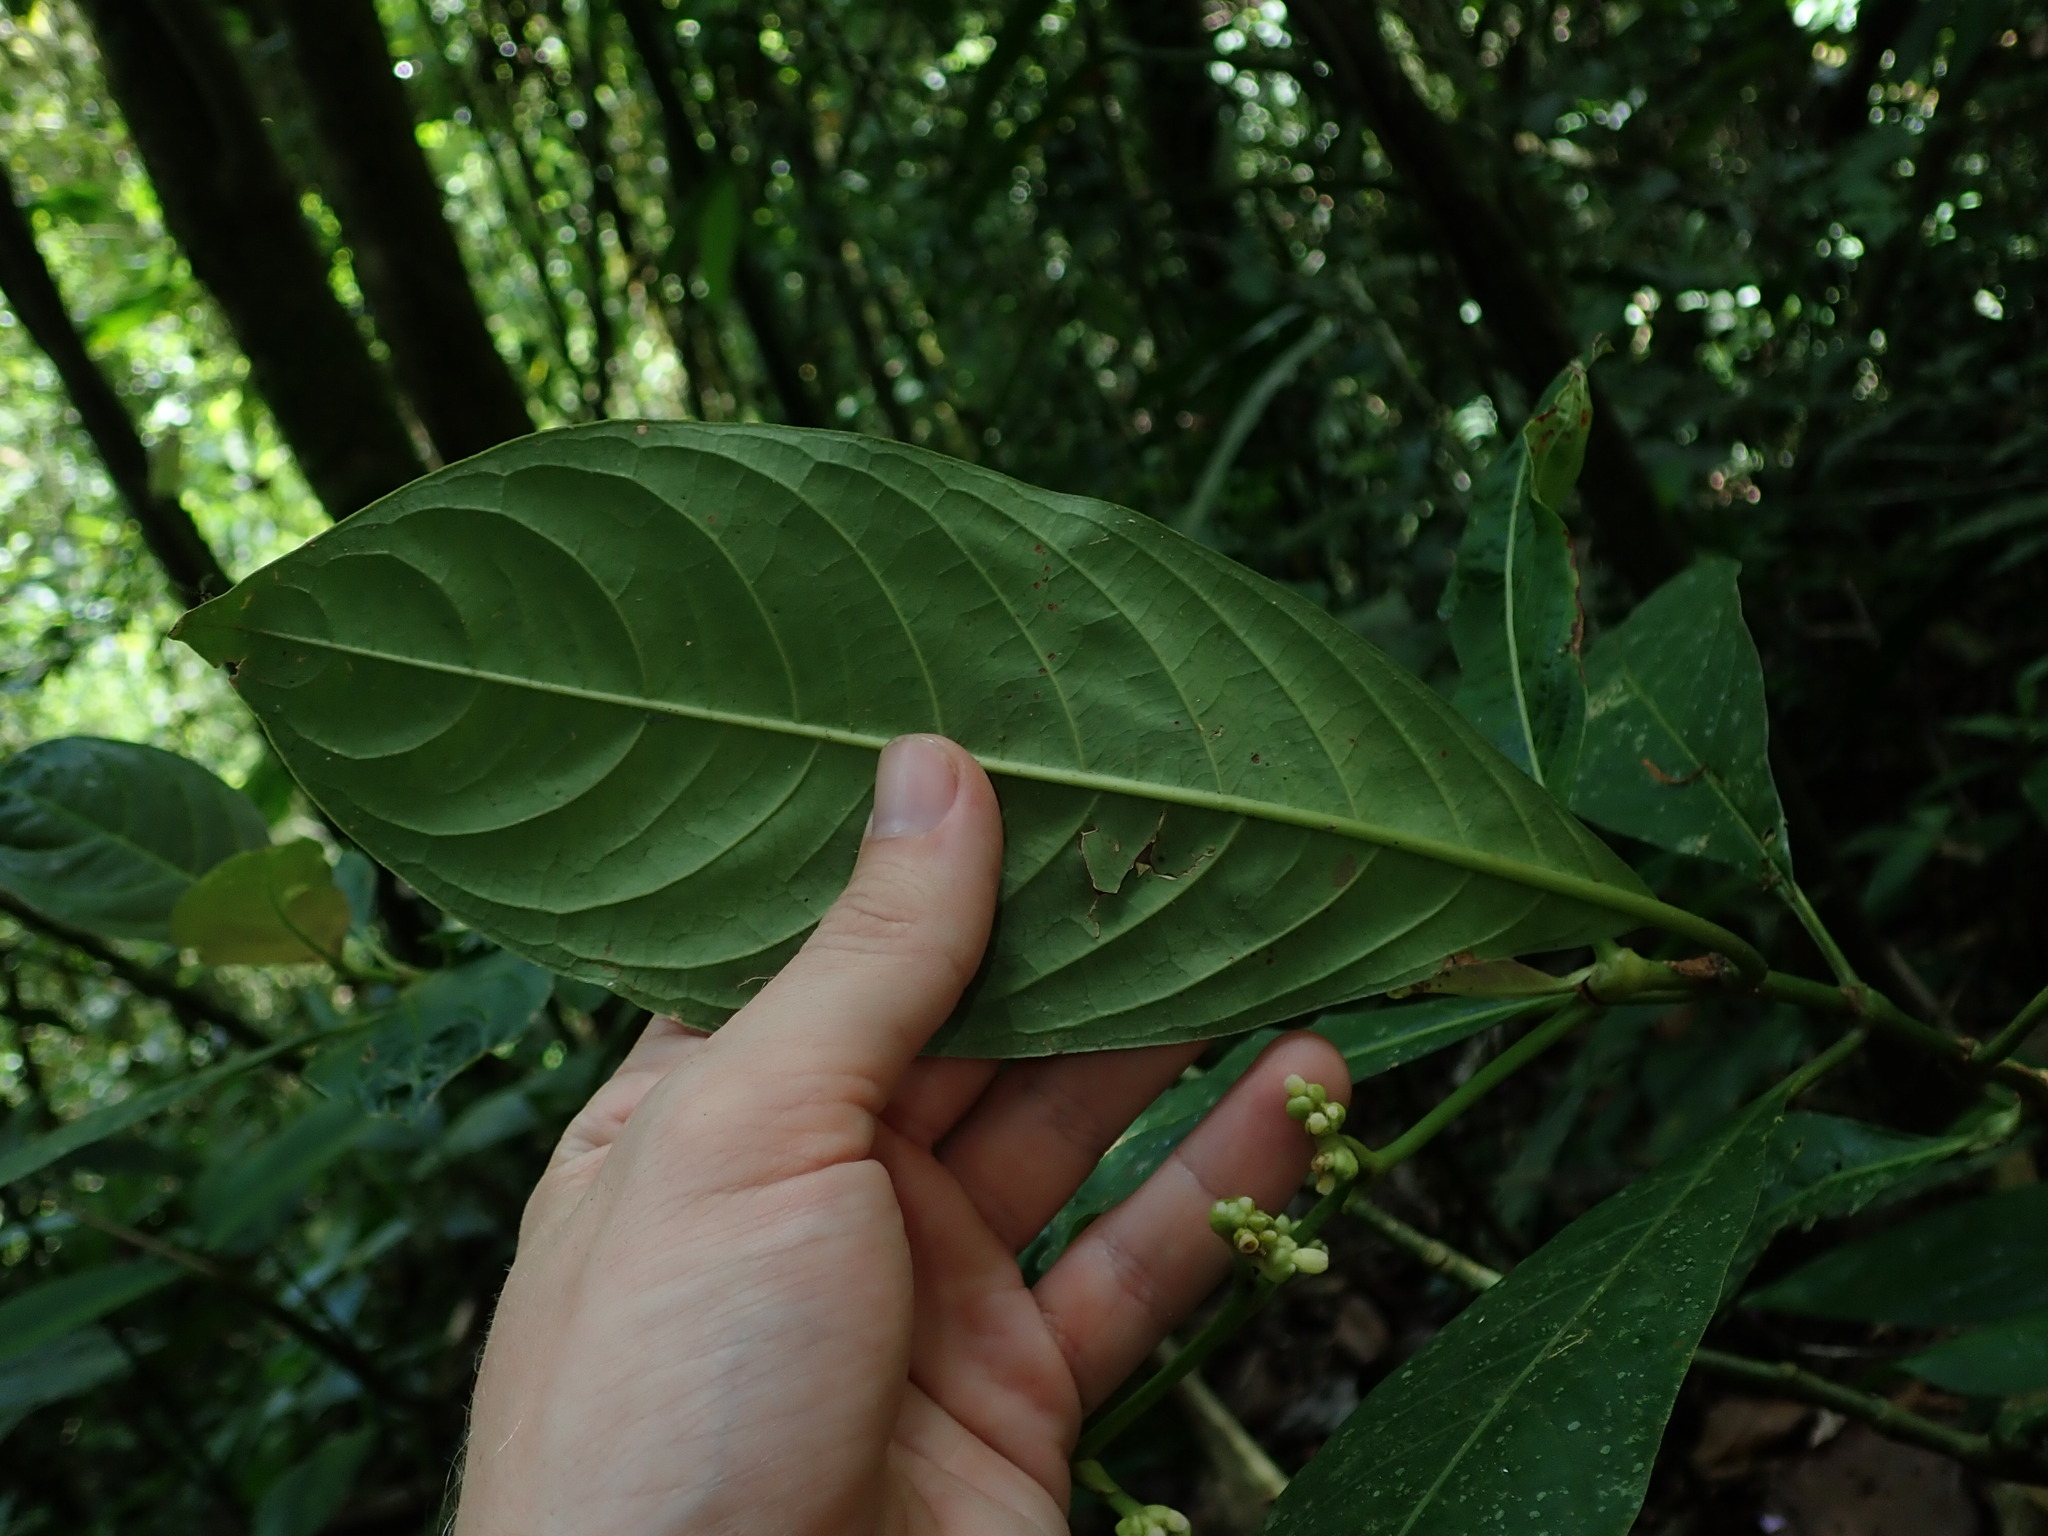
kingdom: Plantae
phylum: Tracheophyta
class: Magnoliopsida
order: Gentianales
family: Rubiaceae
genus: Palicourea
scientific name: Palicourea caerulea
